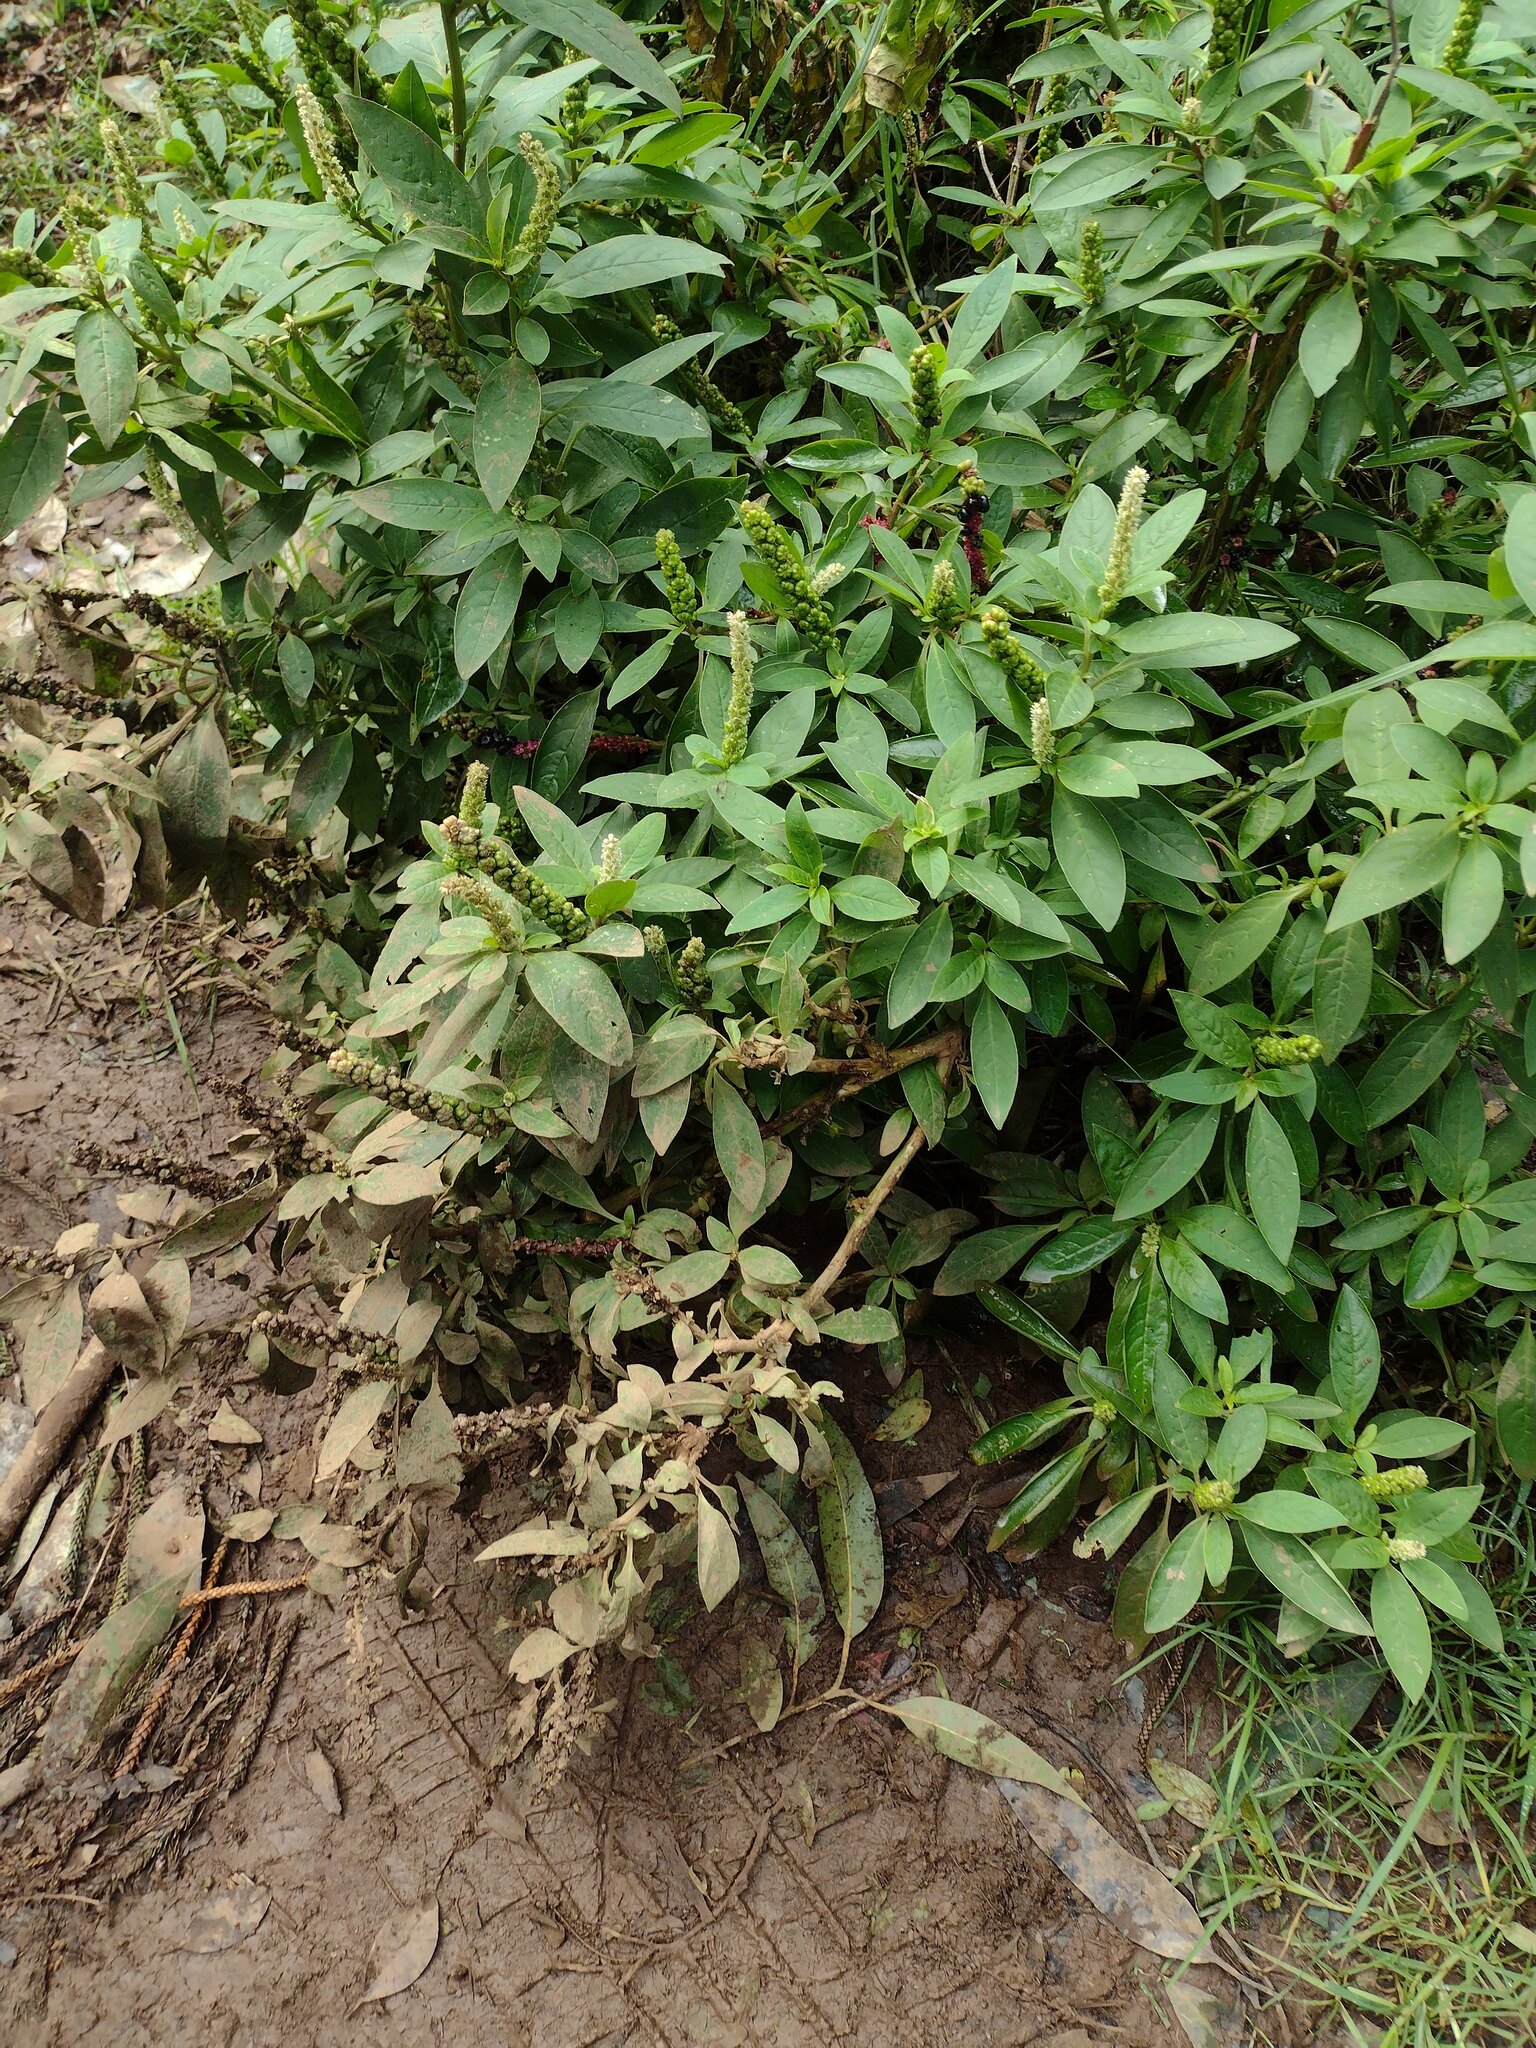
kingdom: Plantae
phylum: Tracheophyta
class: Magnoliopsida
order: Caryophyllales
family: Phytolaccaceae
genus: Phytolacca
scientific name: Phytolacca icosandra
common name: Button pokeweed
